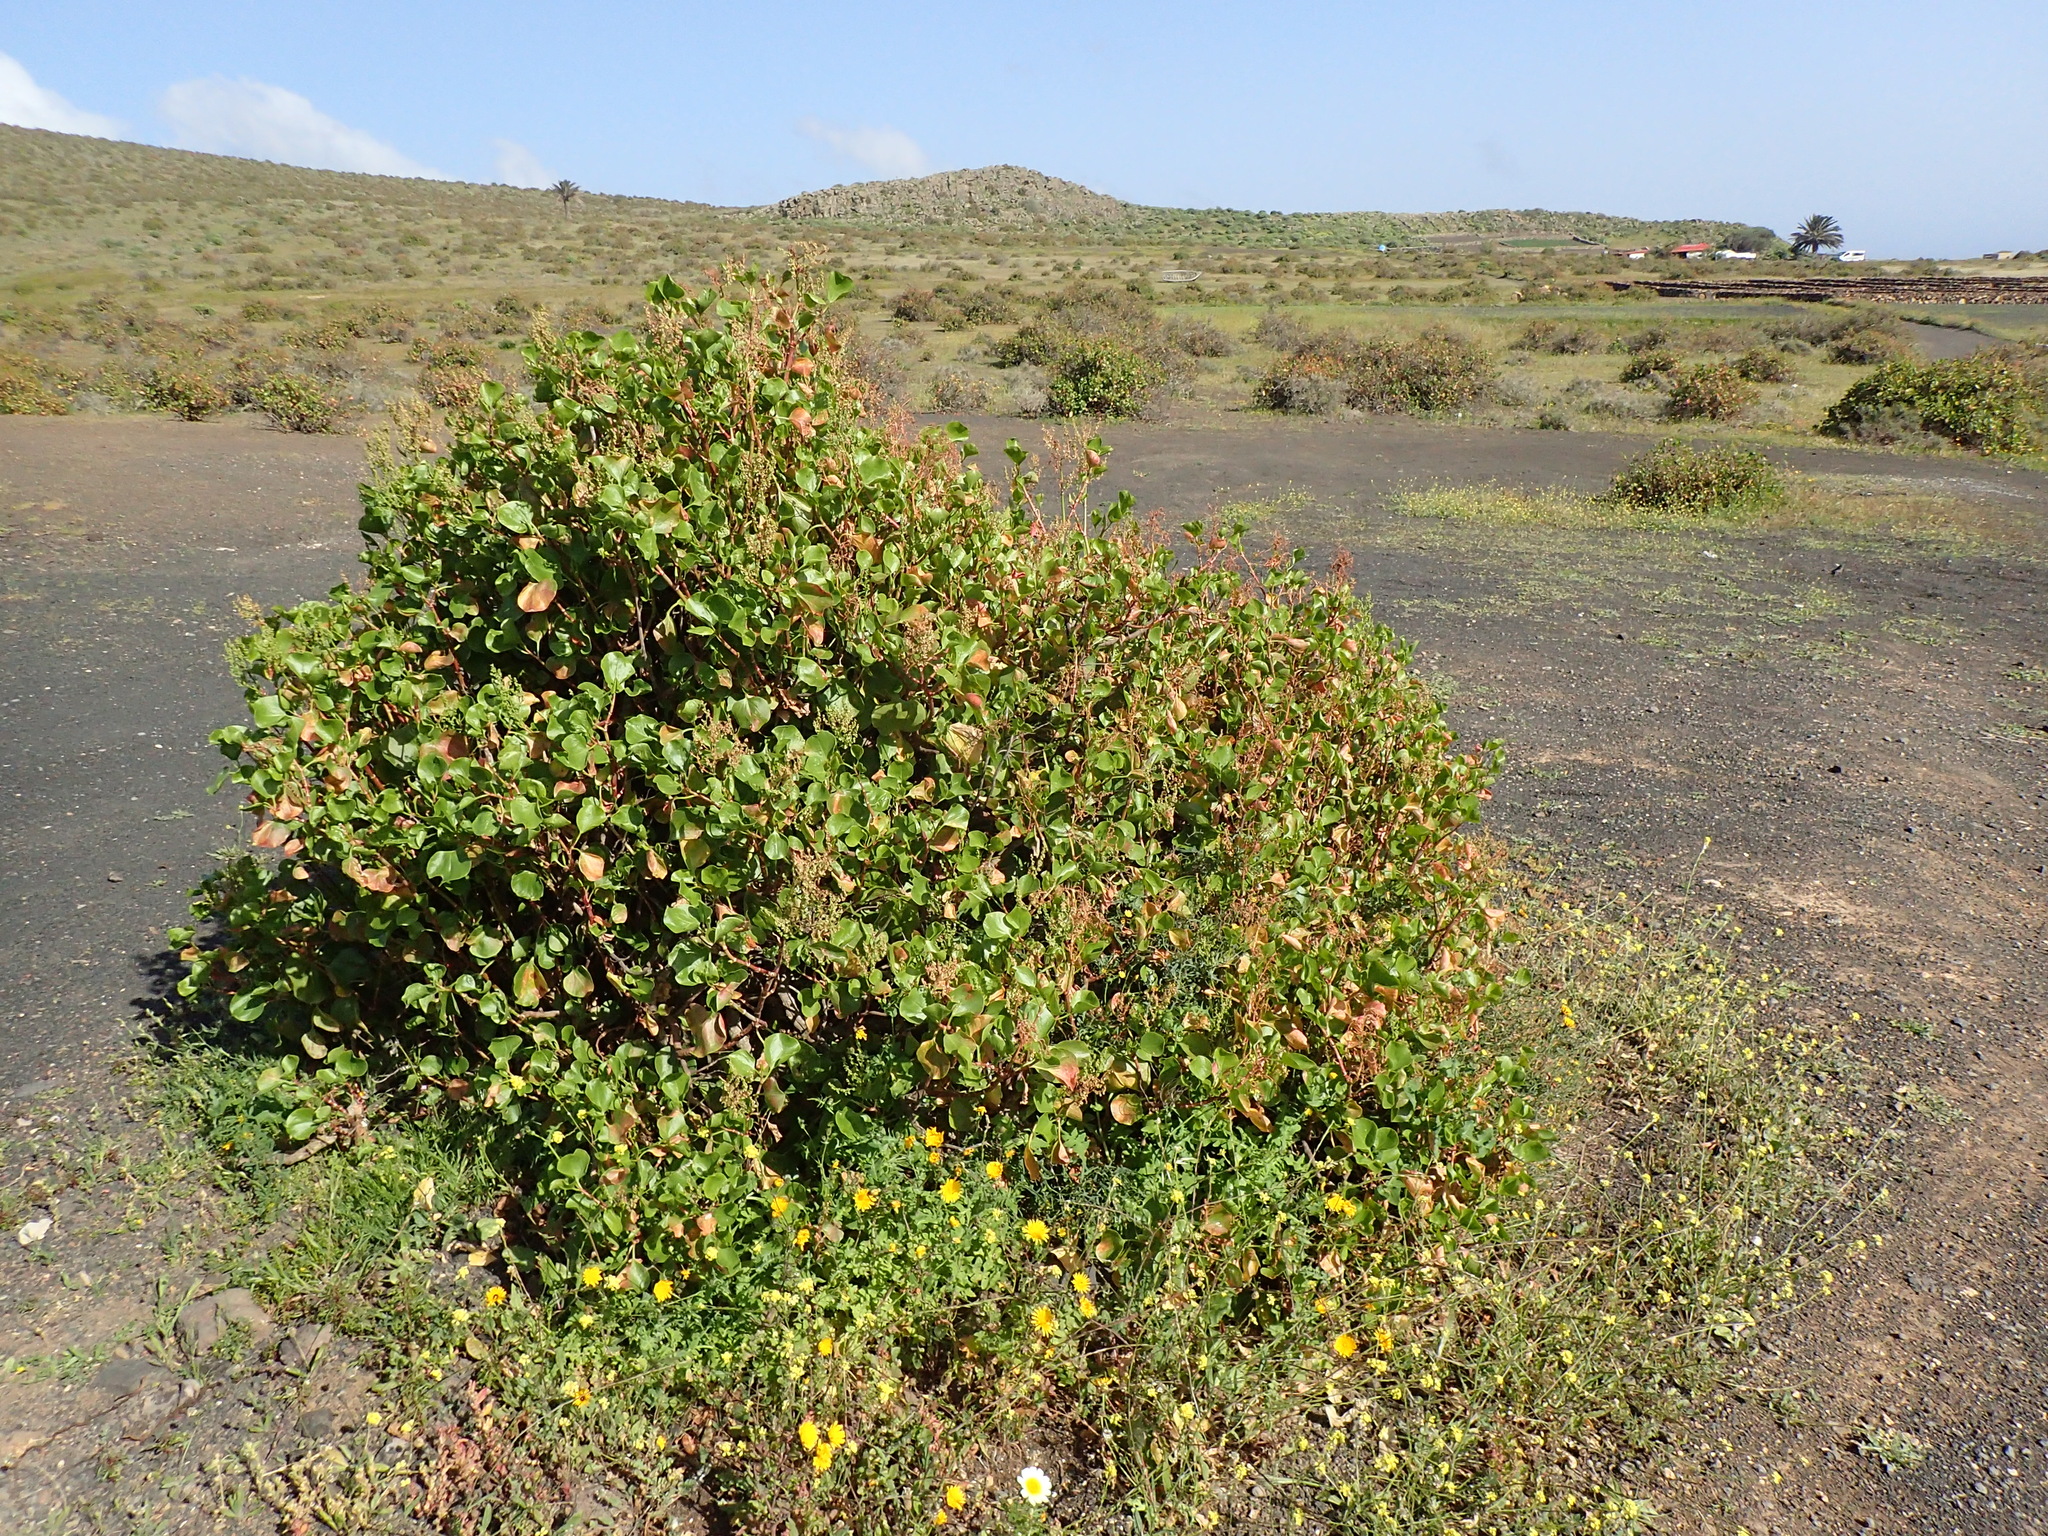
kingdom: Plantae
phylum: Tracheophyta
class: Magnoliopsida
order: Caryophyllales
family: Polygonaceae
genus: Rumex
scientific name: Rumex lunaria
